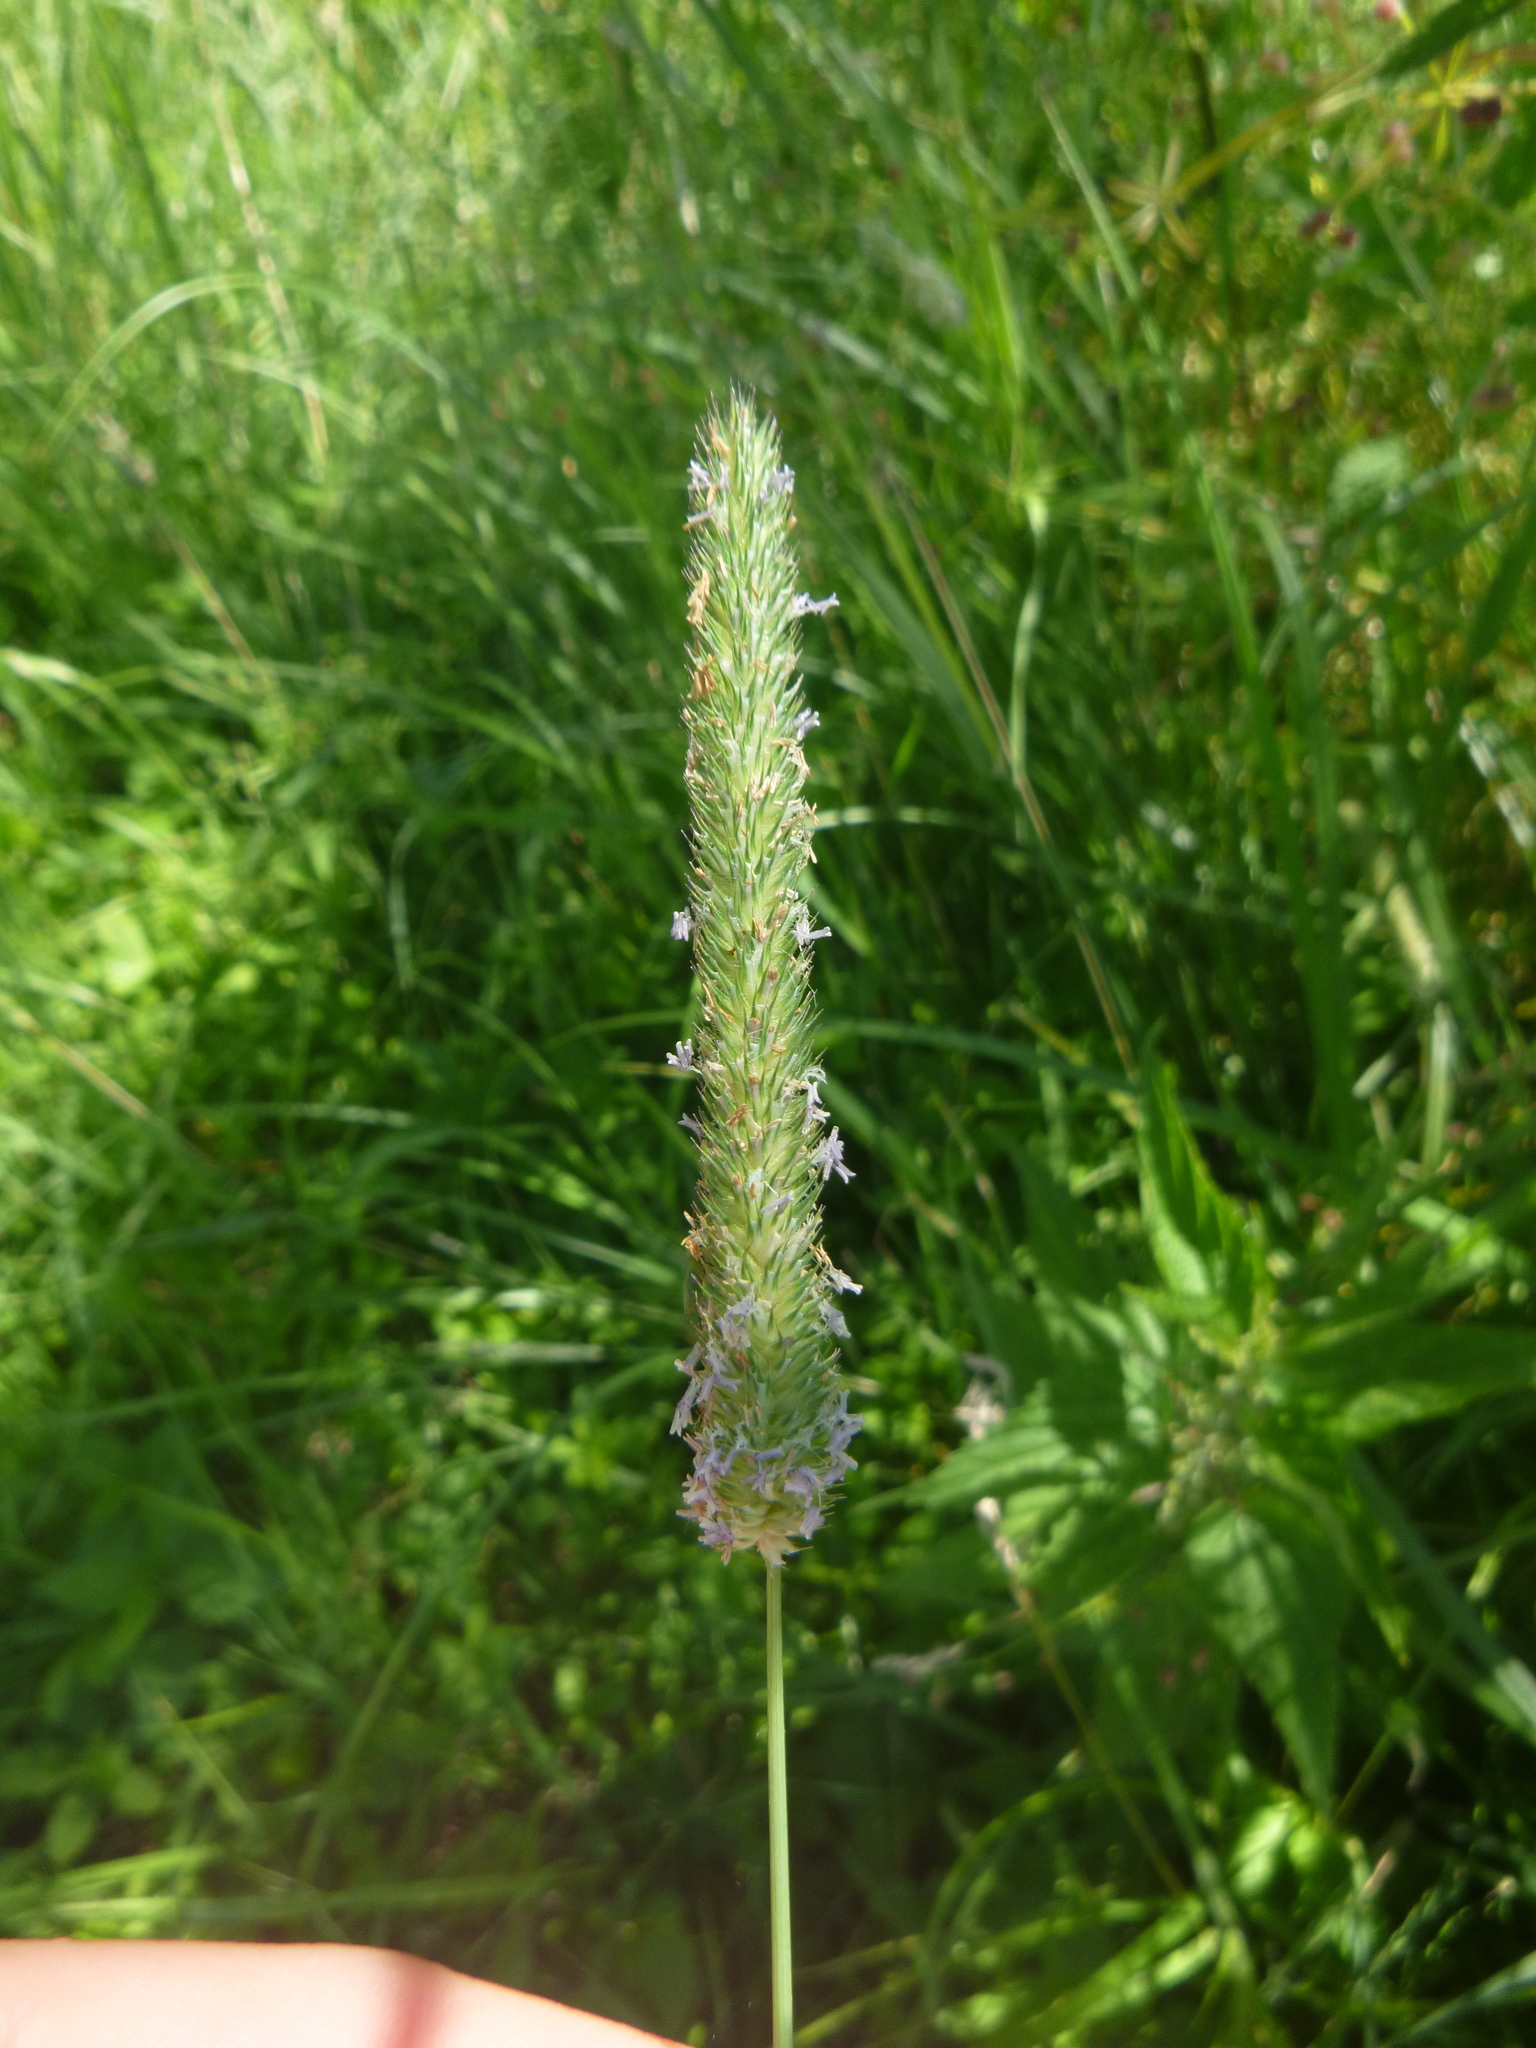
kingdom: Plantae
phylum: Tracheophyta
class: Liliopsida
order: Poales
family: Poaceae
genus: Phleum
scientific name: Phleum pratense
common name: Timothy grass
